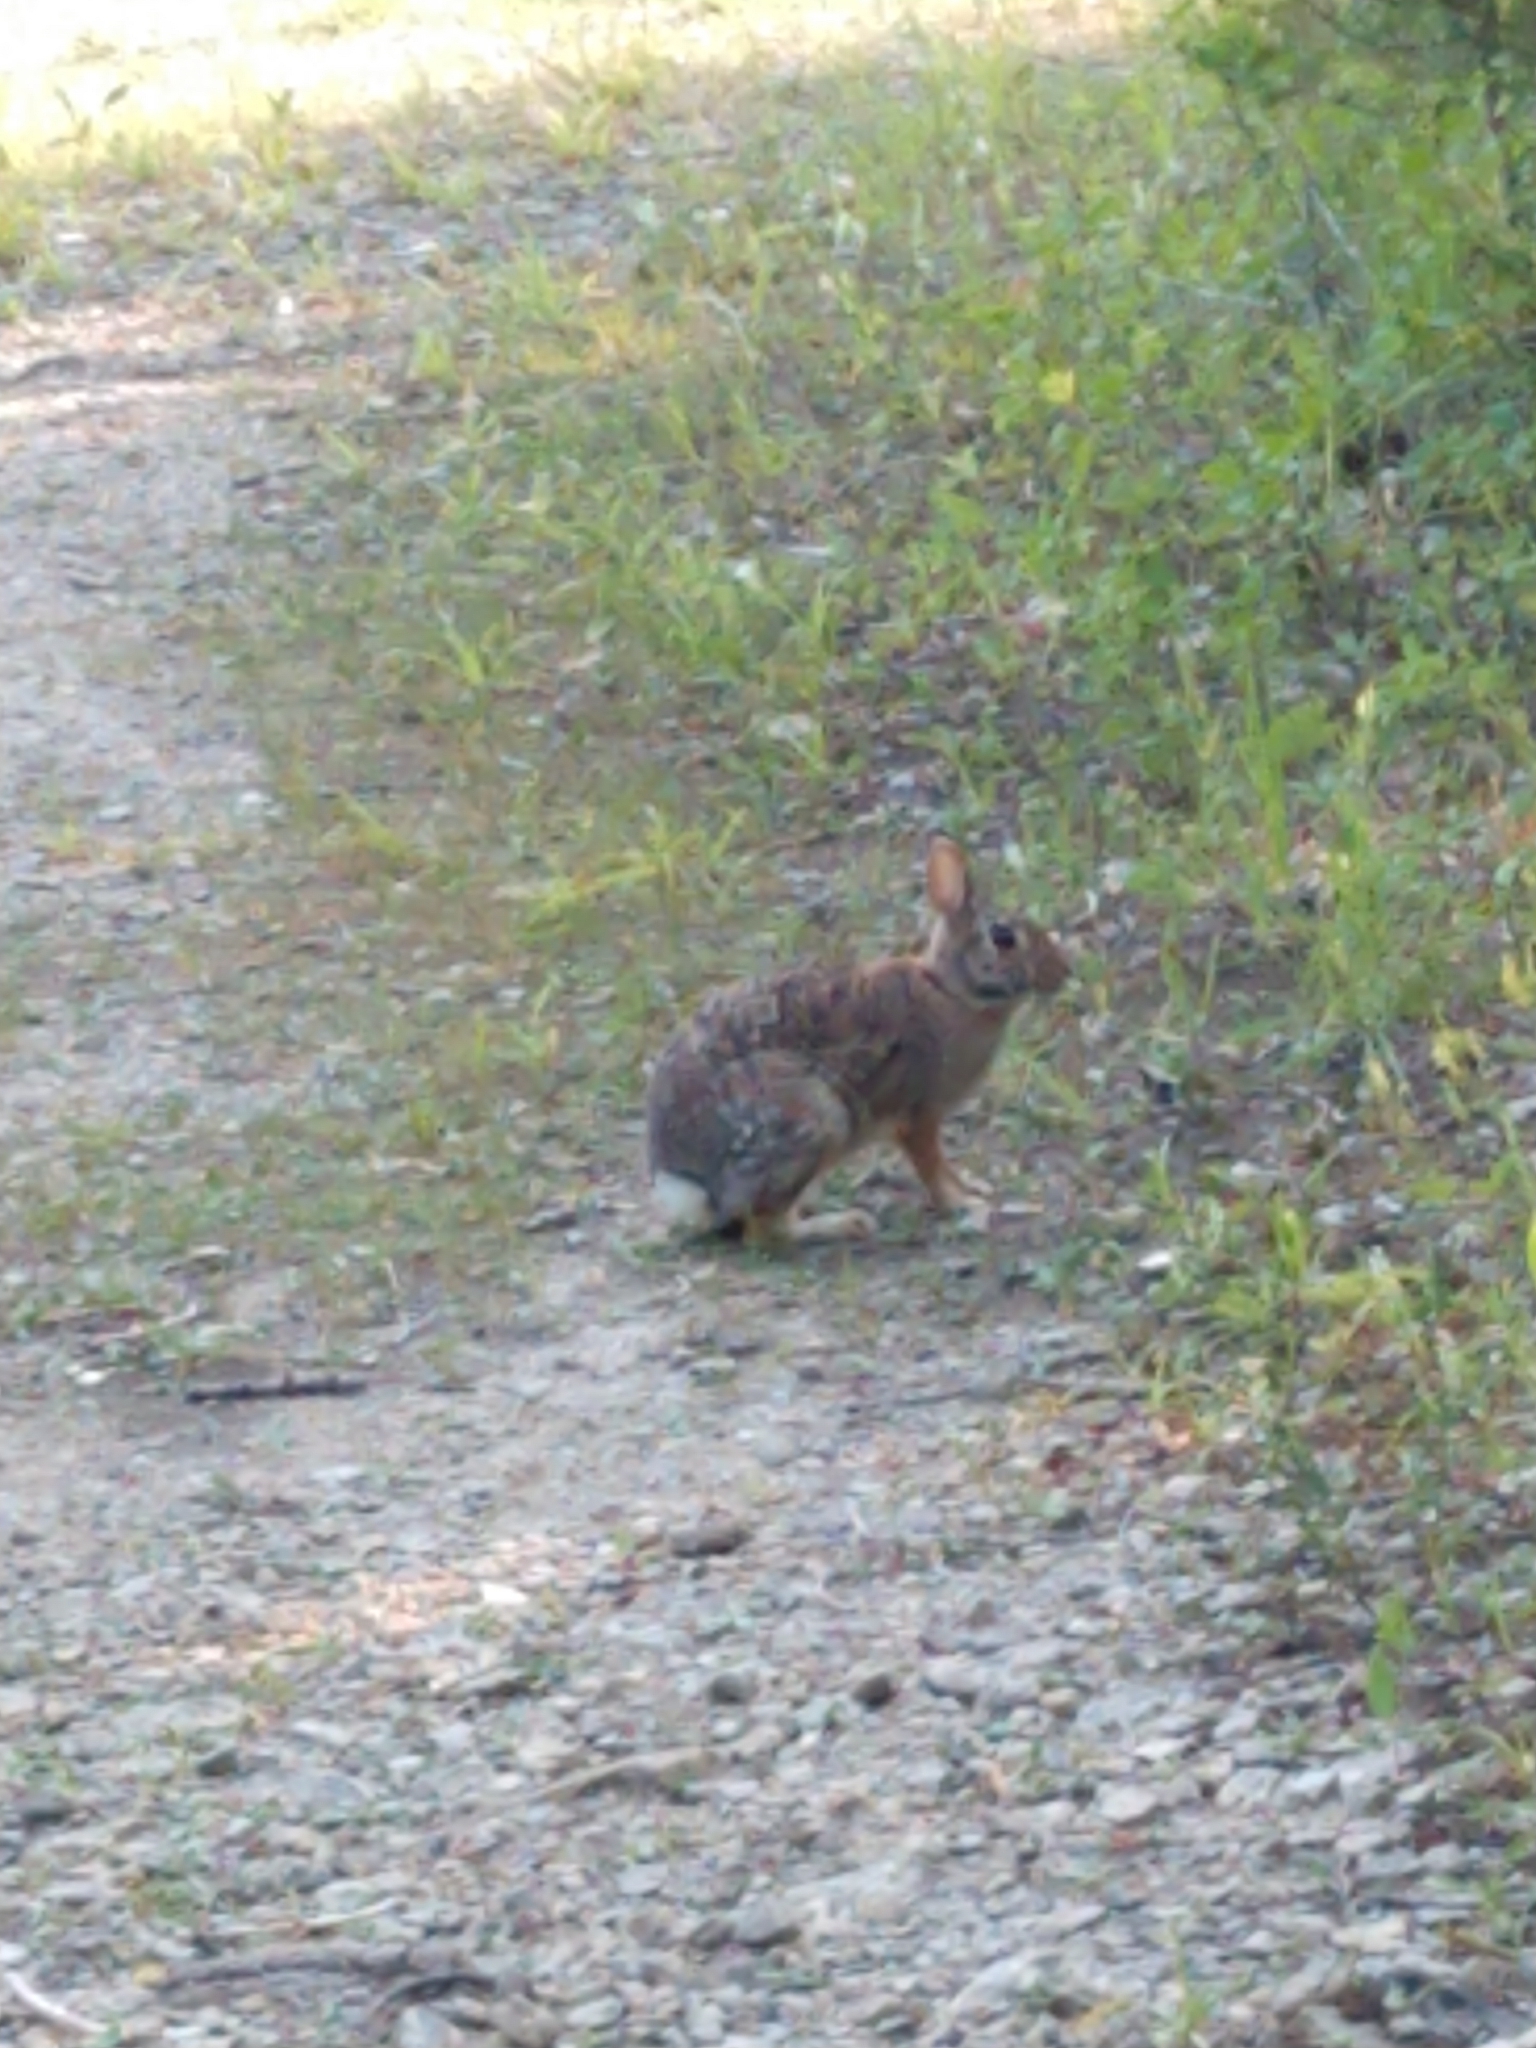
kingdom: Animalia
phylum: Chordata
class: Mammalia
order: Lagomorpha
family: Leporidae
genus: Sylvilagus
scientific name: Sylvilagus floridanus
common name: Eastern cottontail
